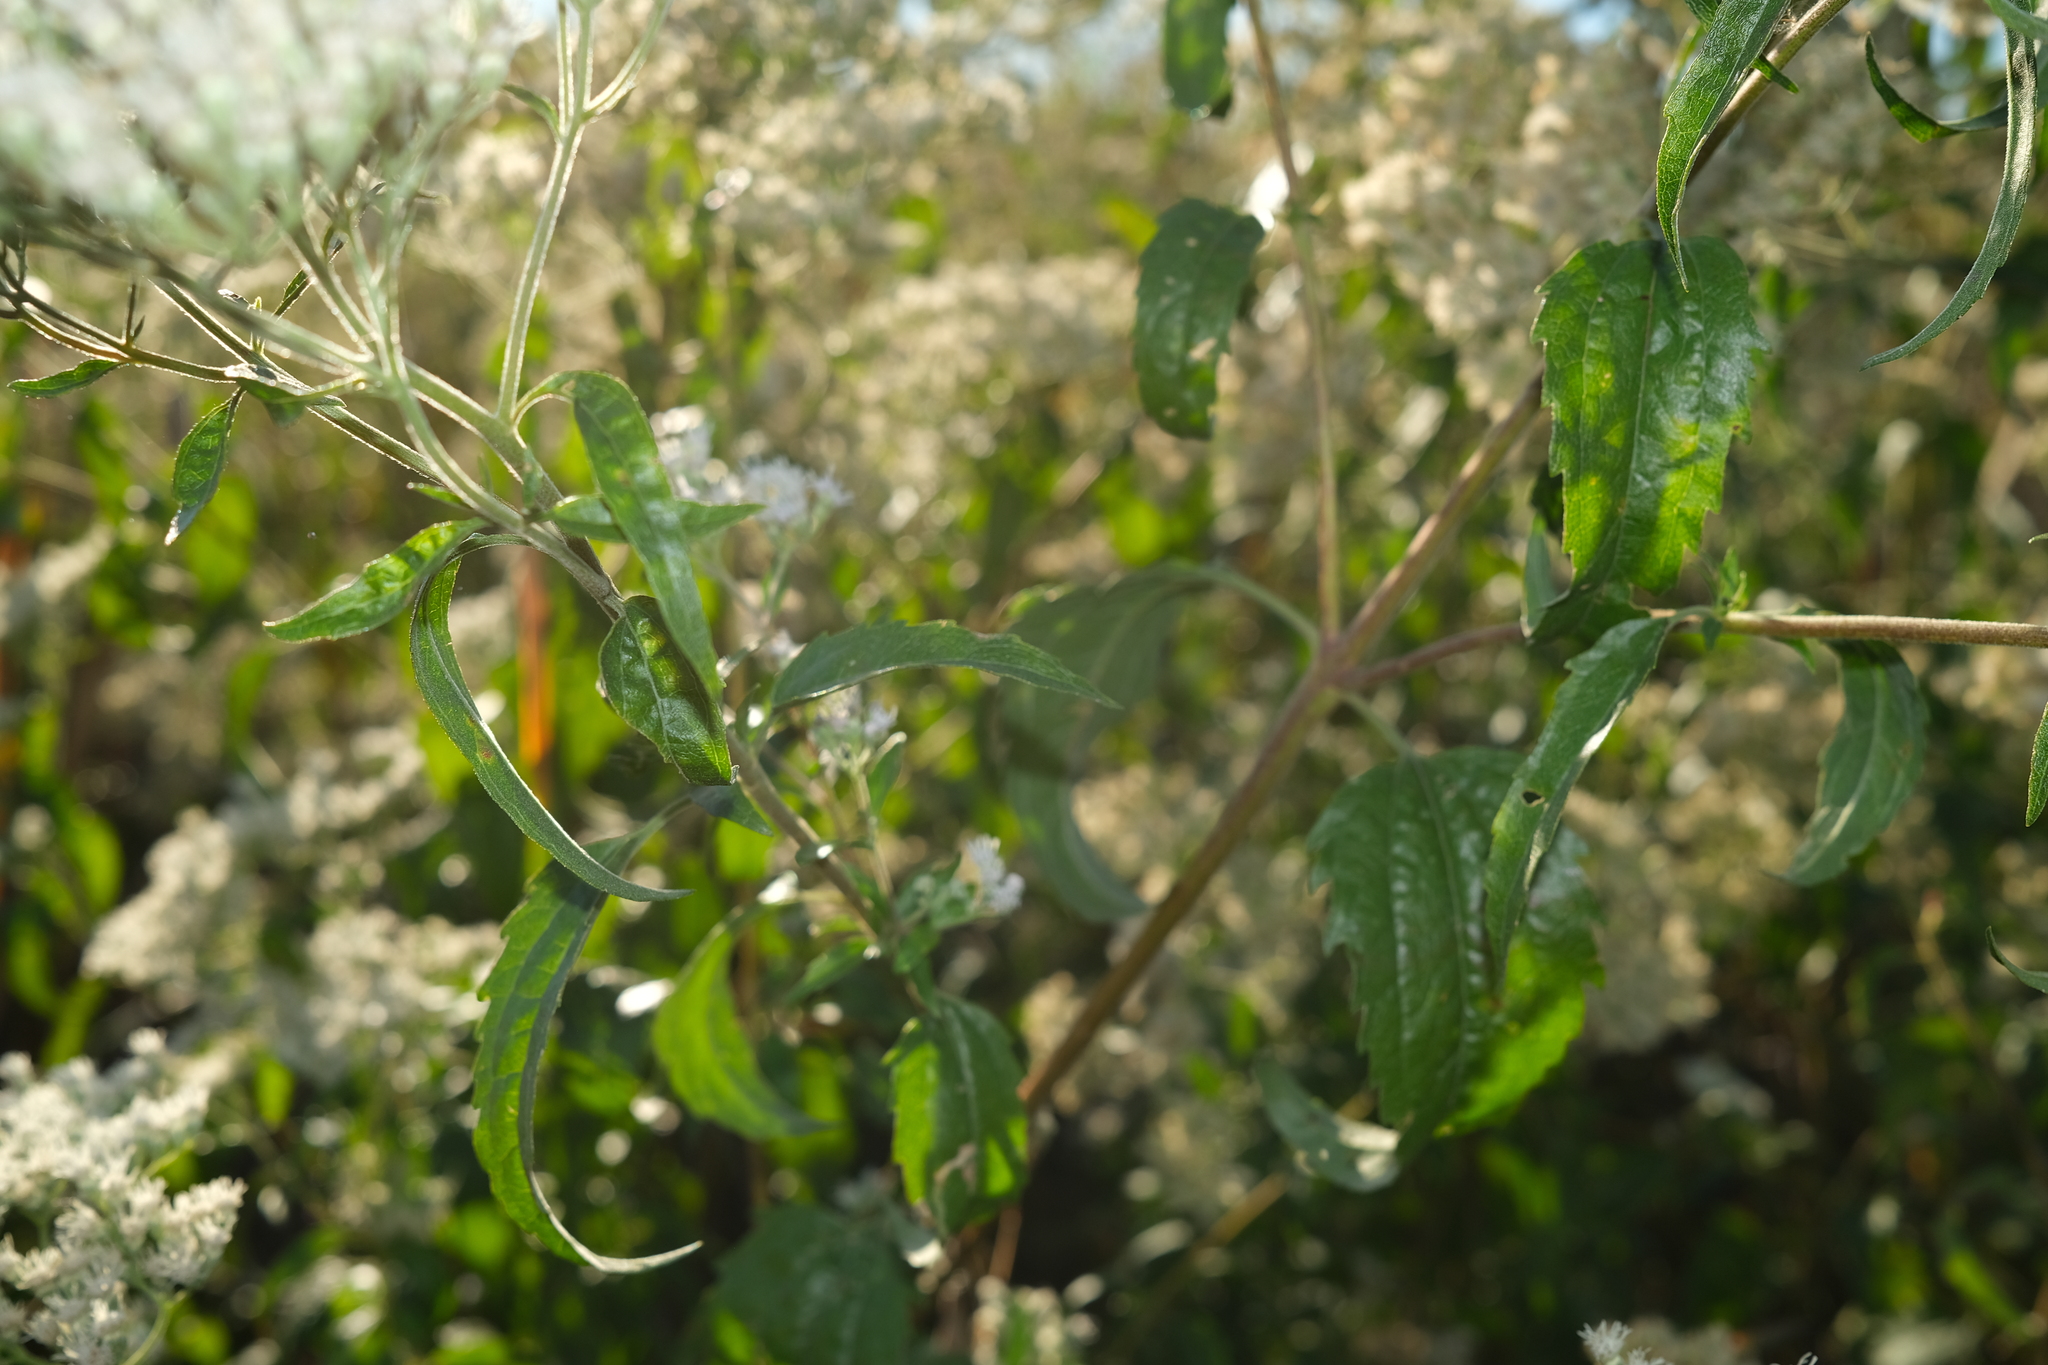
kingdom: Plantae
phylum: Tracheophyta
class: Magnoliopsida
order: Asterales
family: Asteraceae
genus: Eupatorium
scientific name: Eupatorium serotinum
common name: Late boneset
